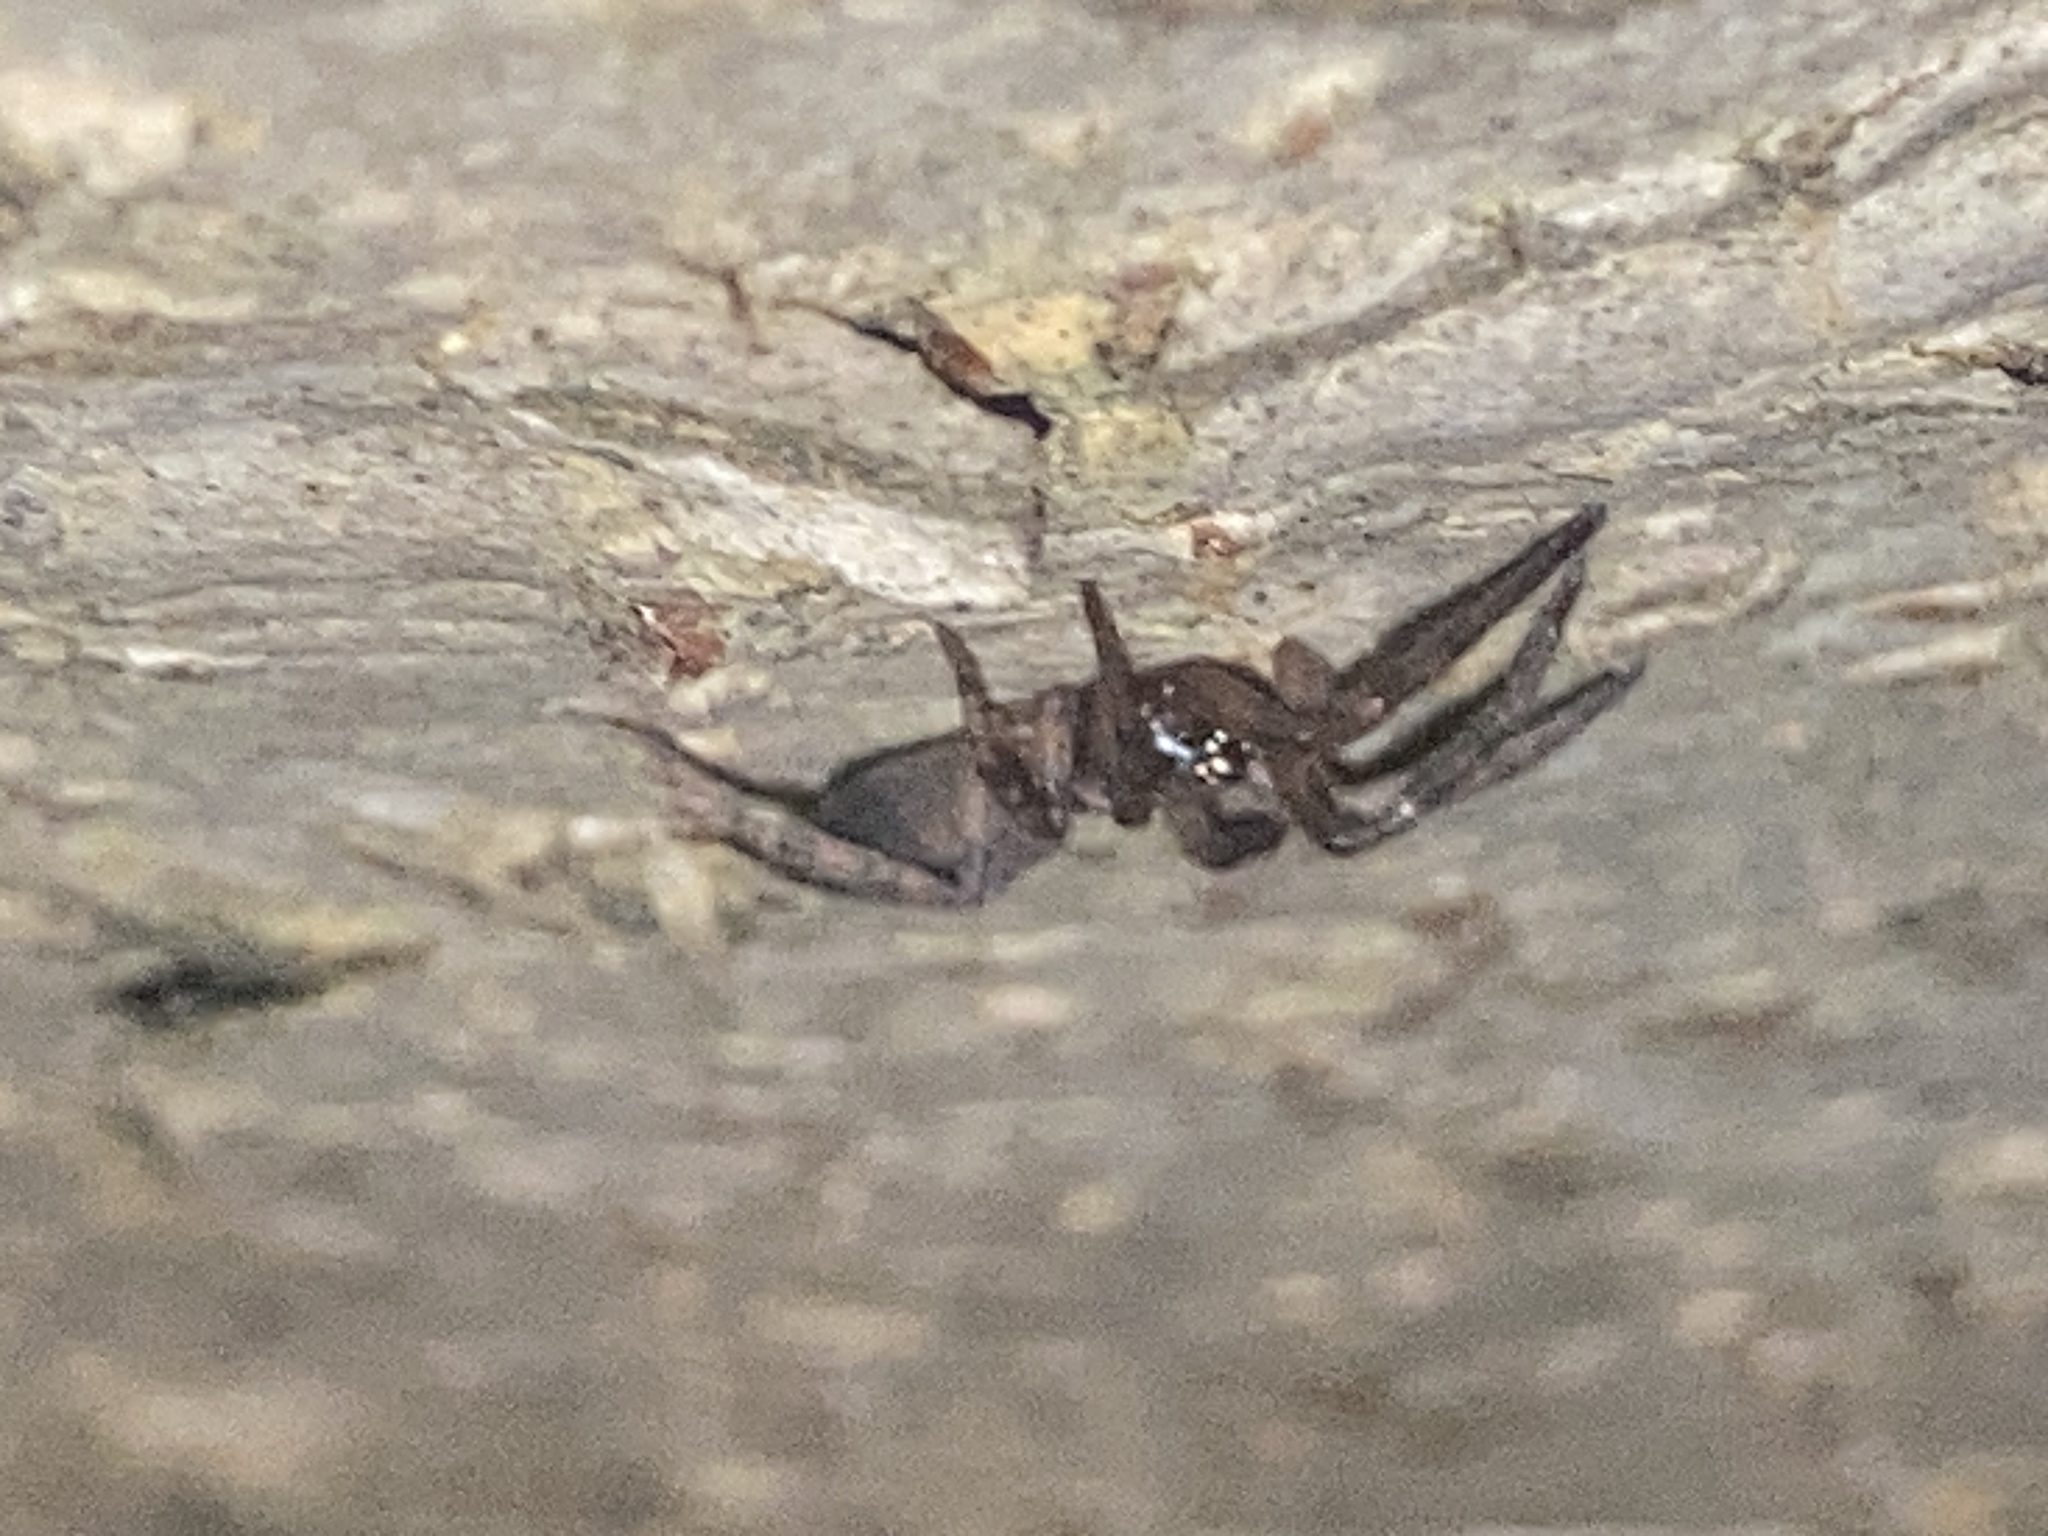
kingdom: Animalia
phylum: Arthropoda
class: Arachnida
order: Araneae
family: Gnaphosidae
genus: Intruda
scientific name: Intruda signata
